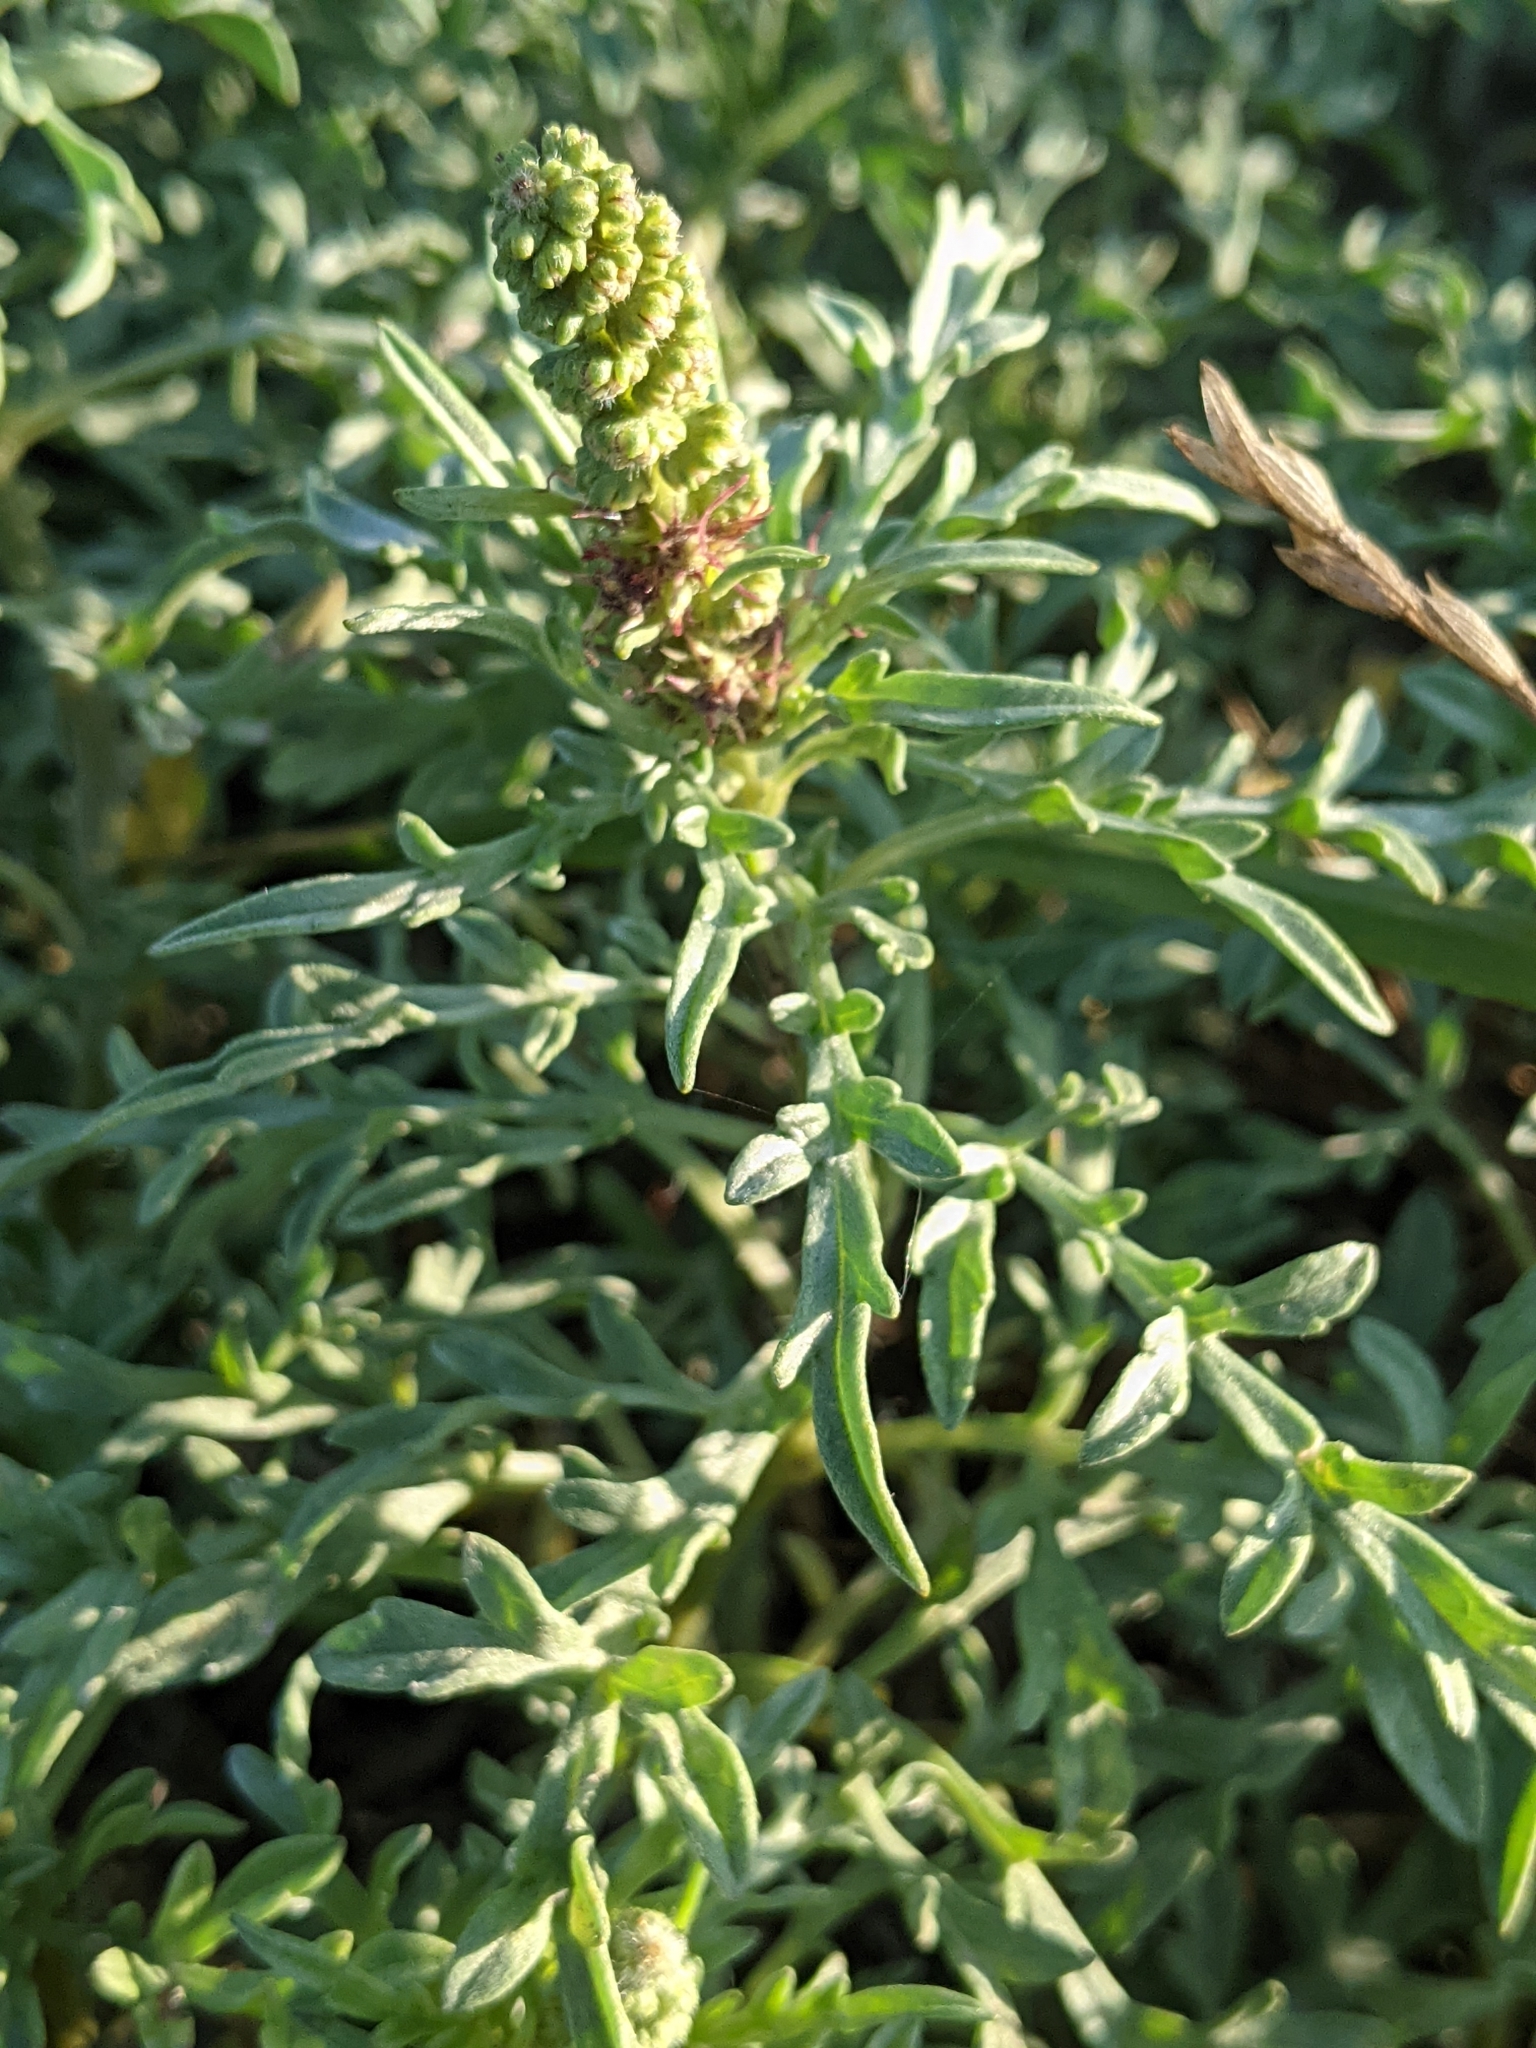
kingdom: Plantae
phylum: Tracheophyta
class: Magnoliopsida
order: Asterales
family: Asteraceae
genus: Ambrosia
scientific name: Ambrosia chamissonis
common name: Beachbur
